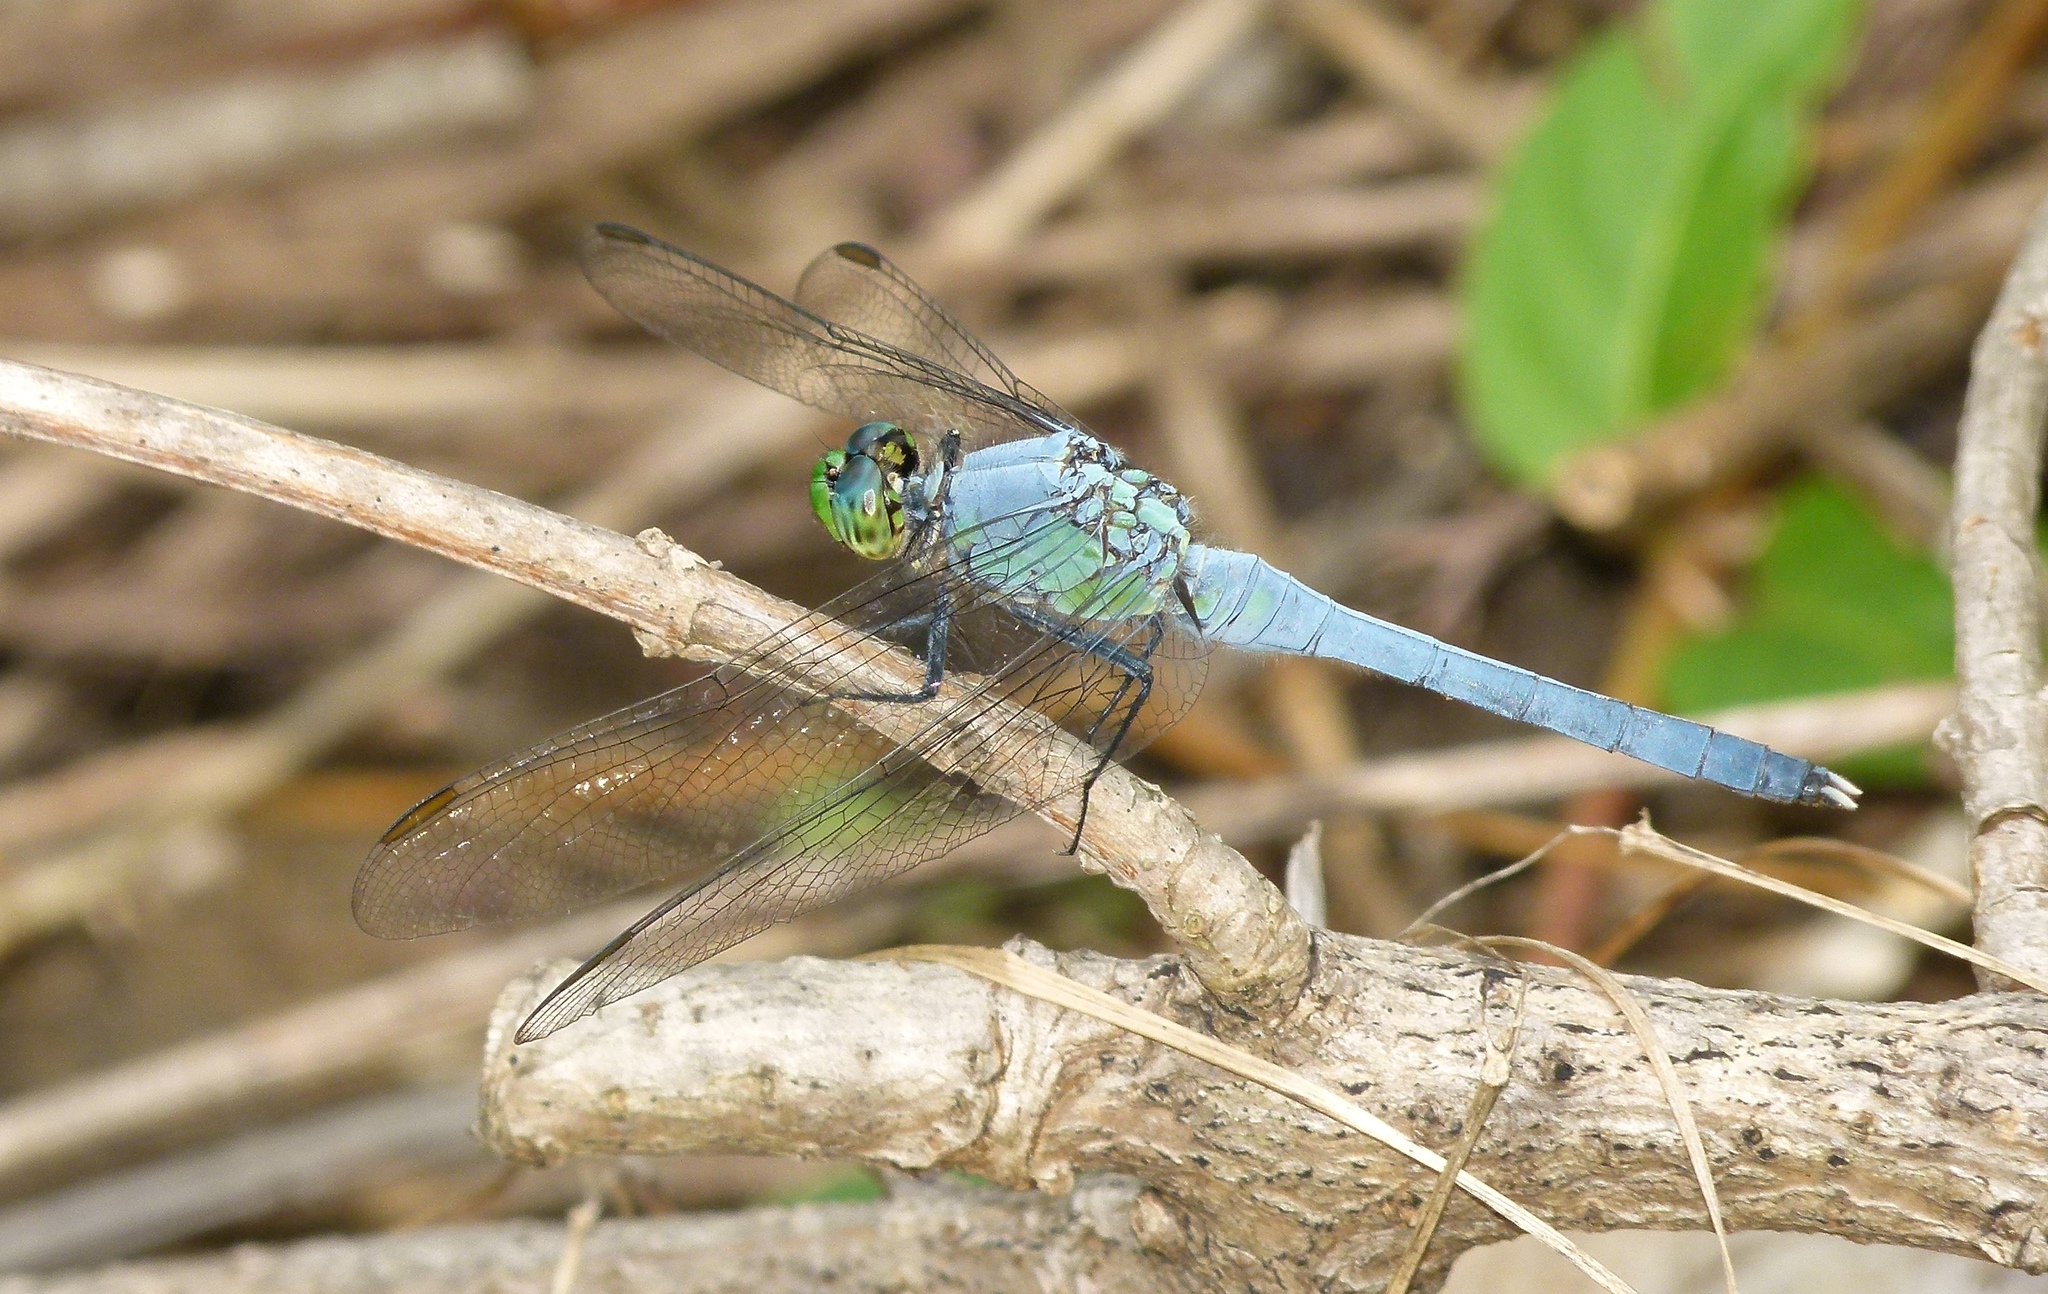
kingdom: Animalia
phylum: Arthropoda
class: Insecta
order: Odonata
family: Libellulidae
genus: Erythemis
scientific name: Erythemis simplicicollis
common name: Eastern pondhawk
